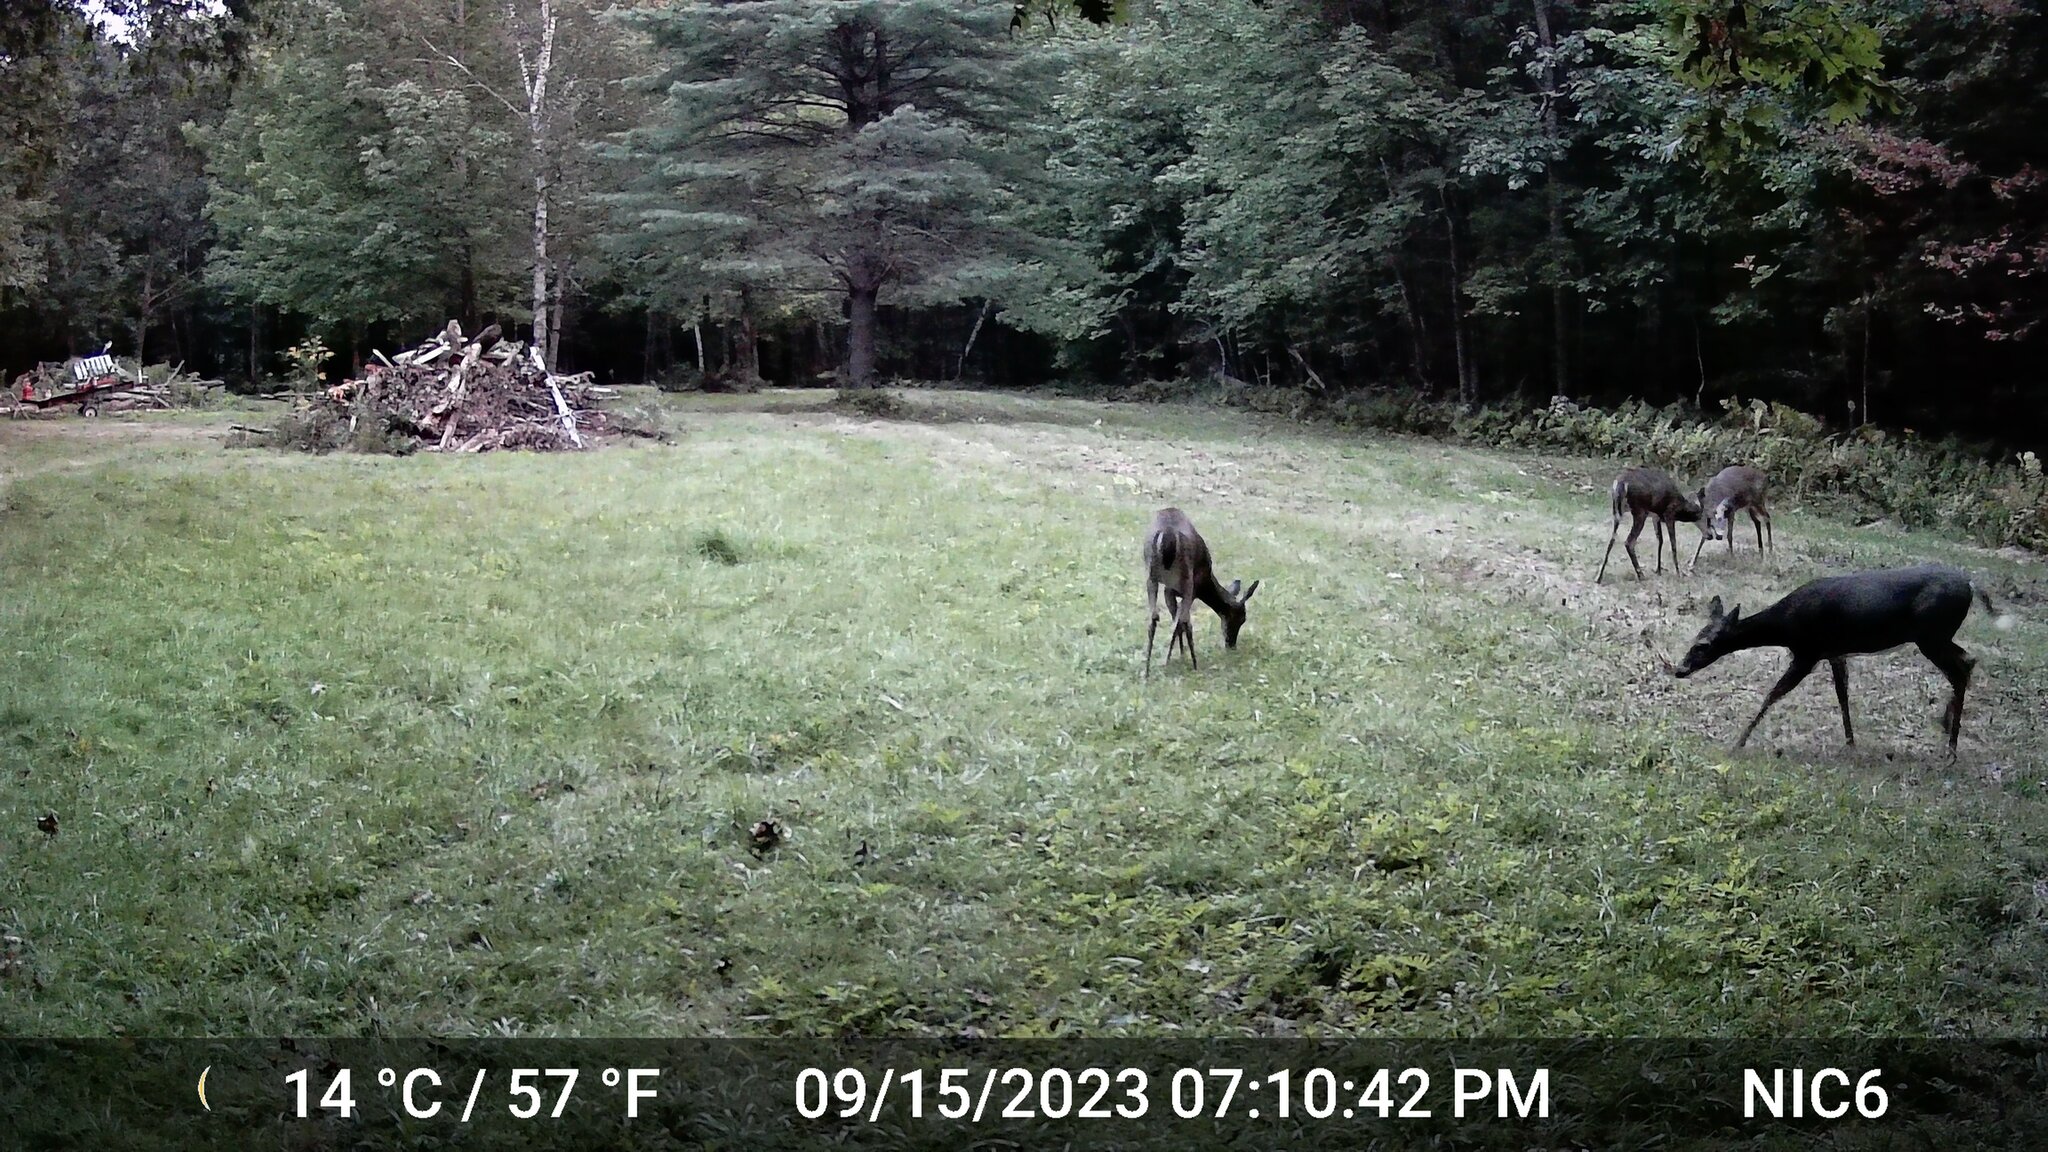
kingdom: Animalia
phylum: Chordata
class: Mammalia
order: Artiodactyla
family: Cervidae
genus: Odocoileus
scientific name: Odocoileus virginianus
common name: White-tailed deer
